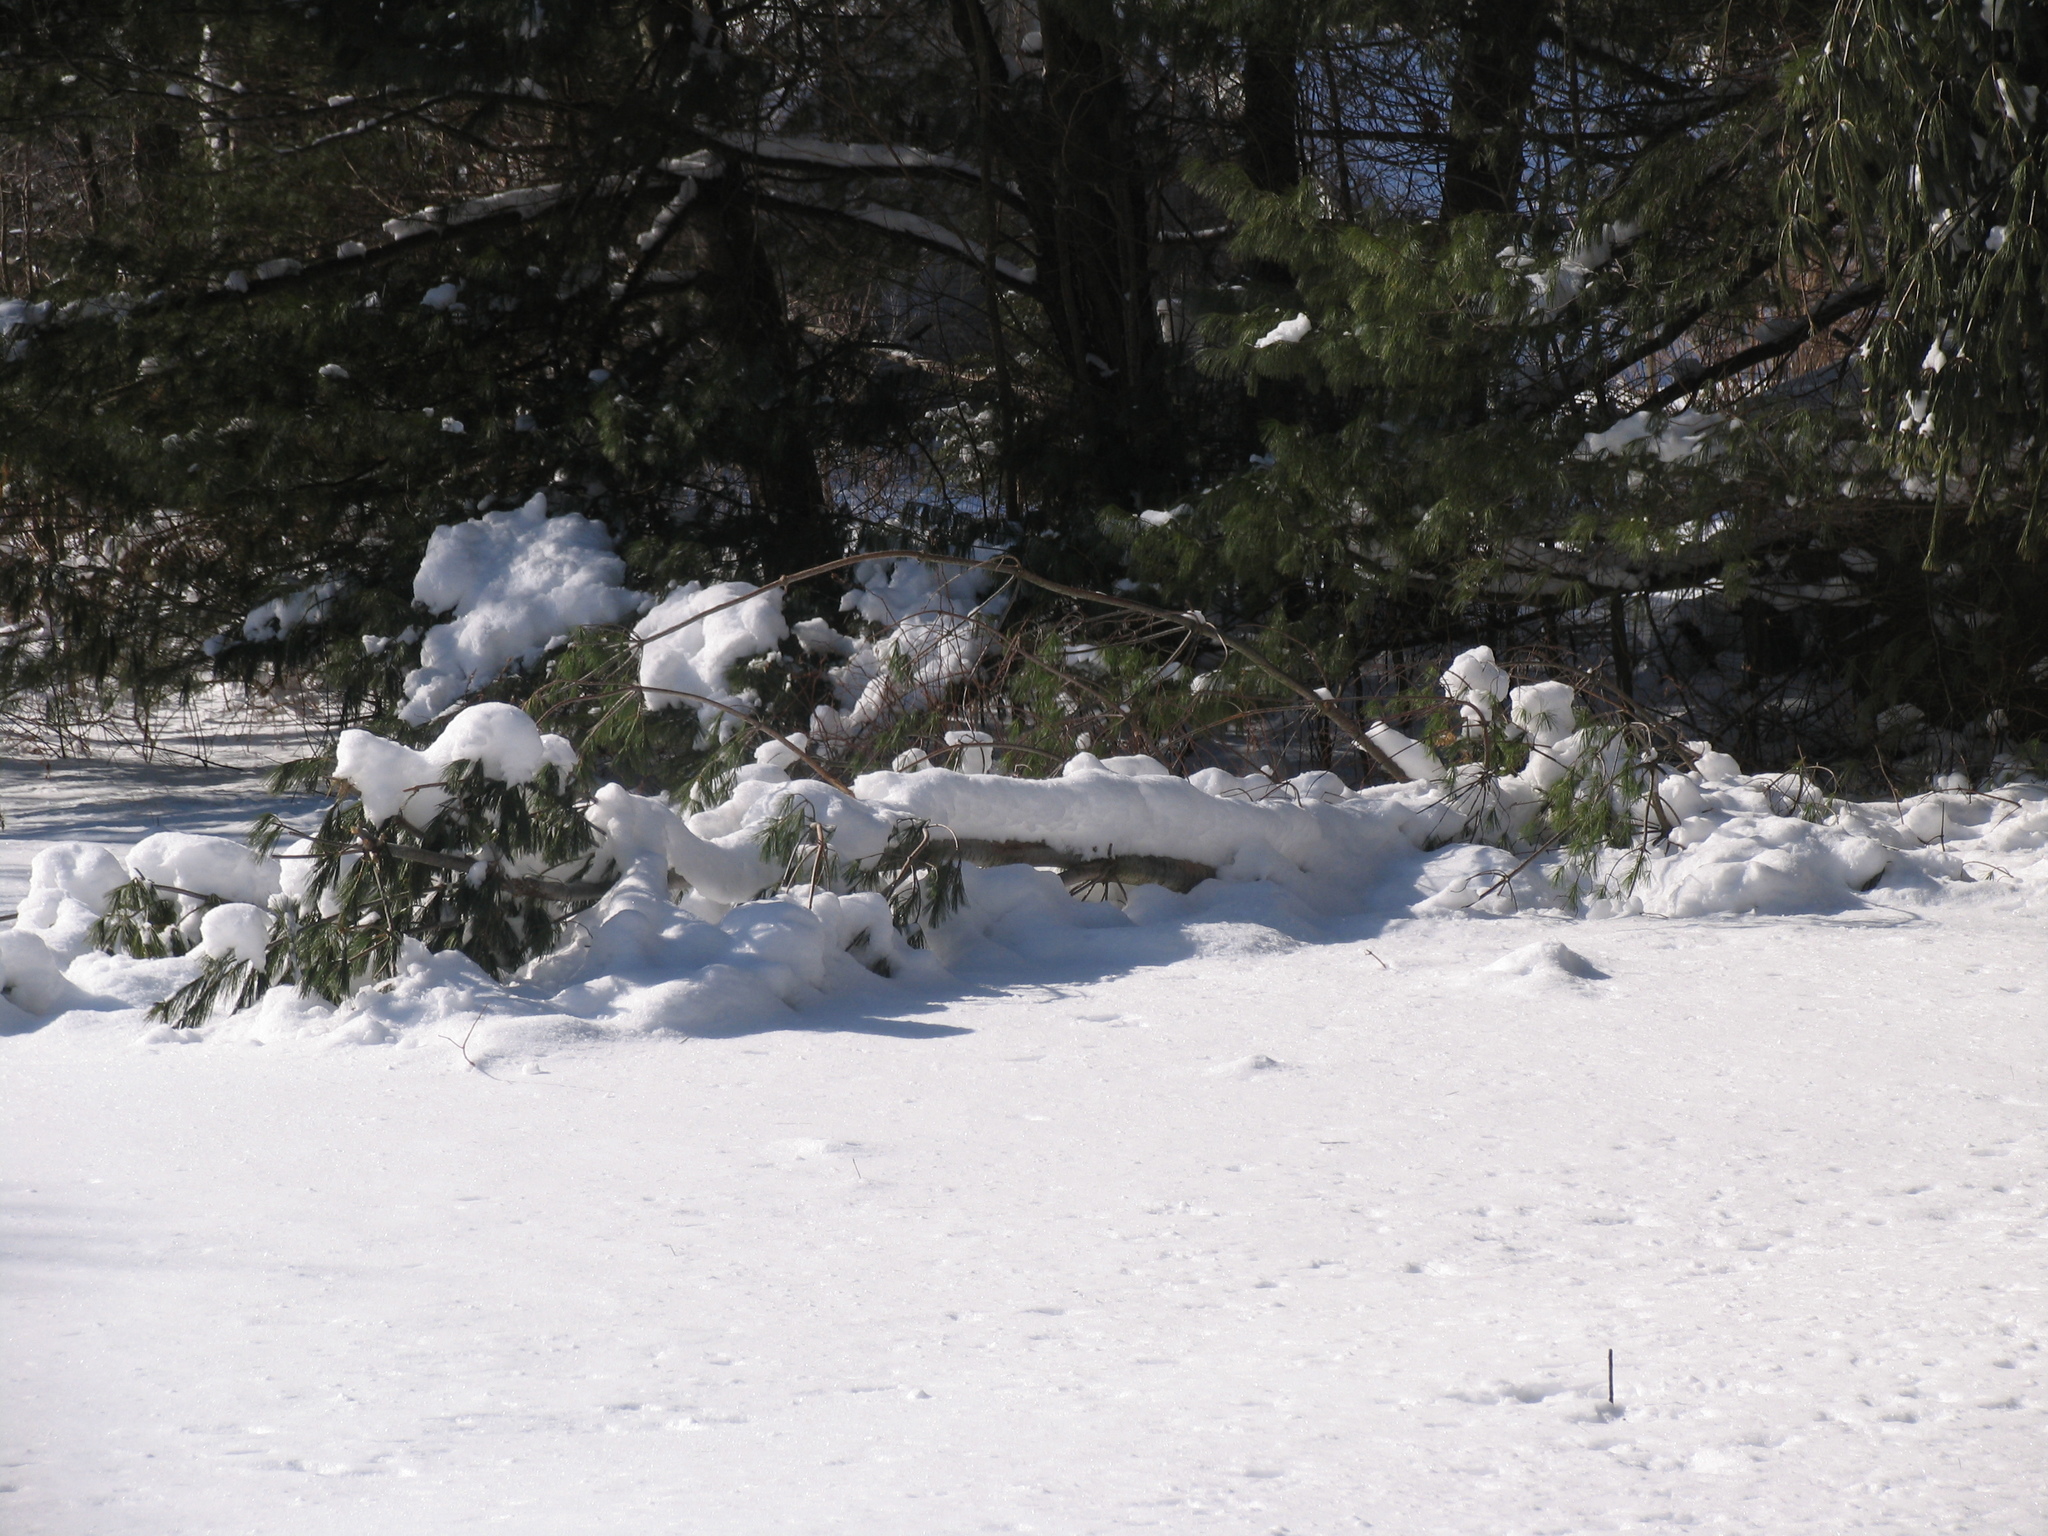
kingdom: Plantae
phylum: Tracheophyta
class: Pinopsida
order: Pinales
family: Pinaceae
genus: Pinus
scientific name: Pinus strobus
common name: Weymouth pine
